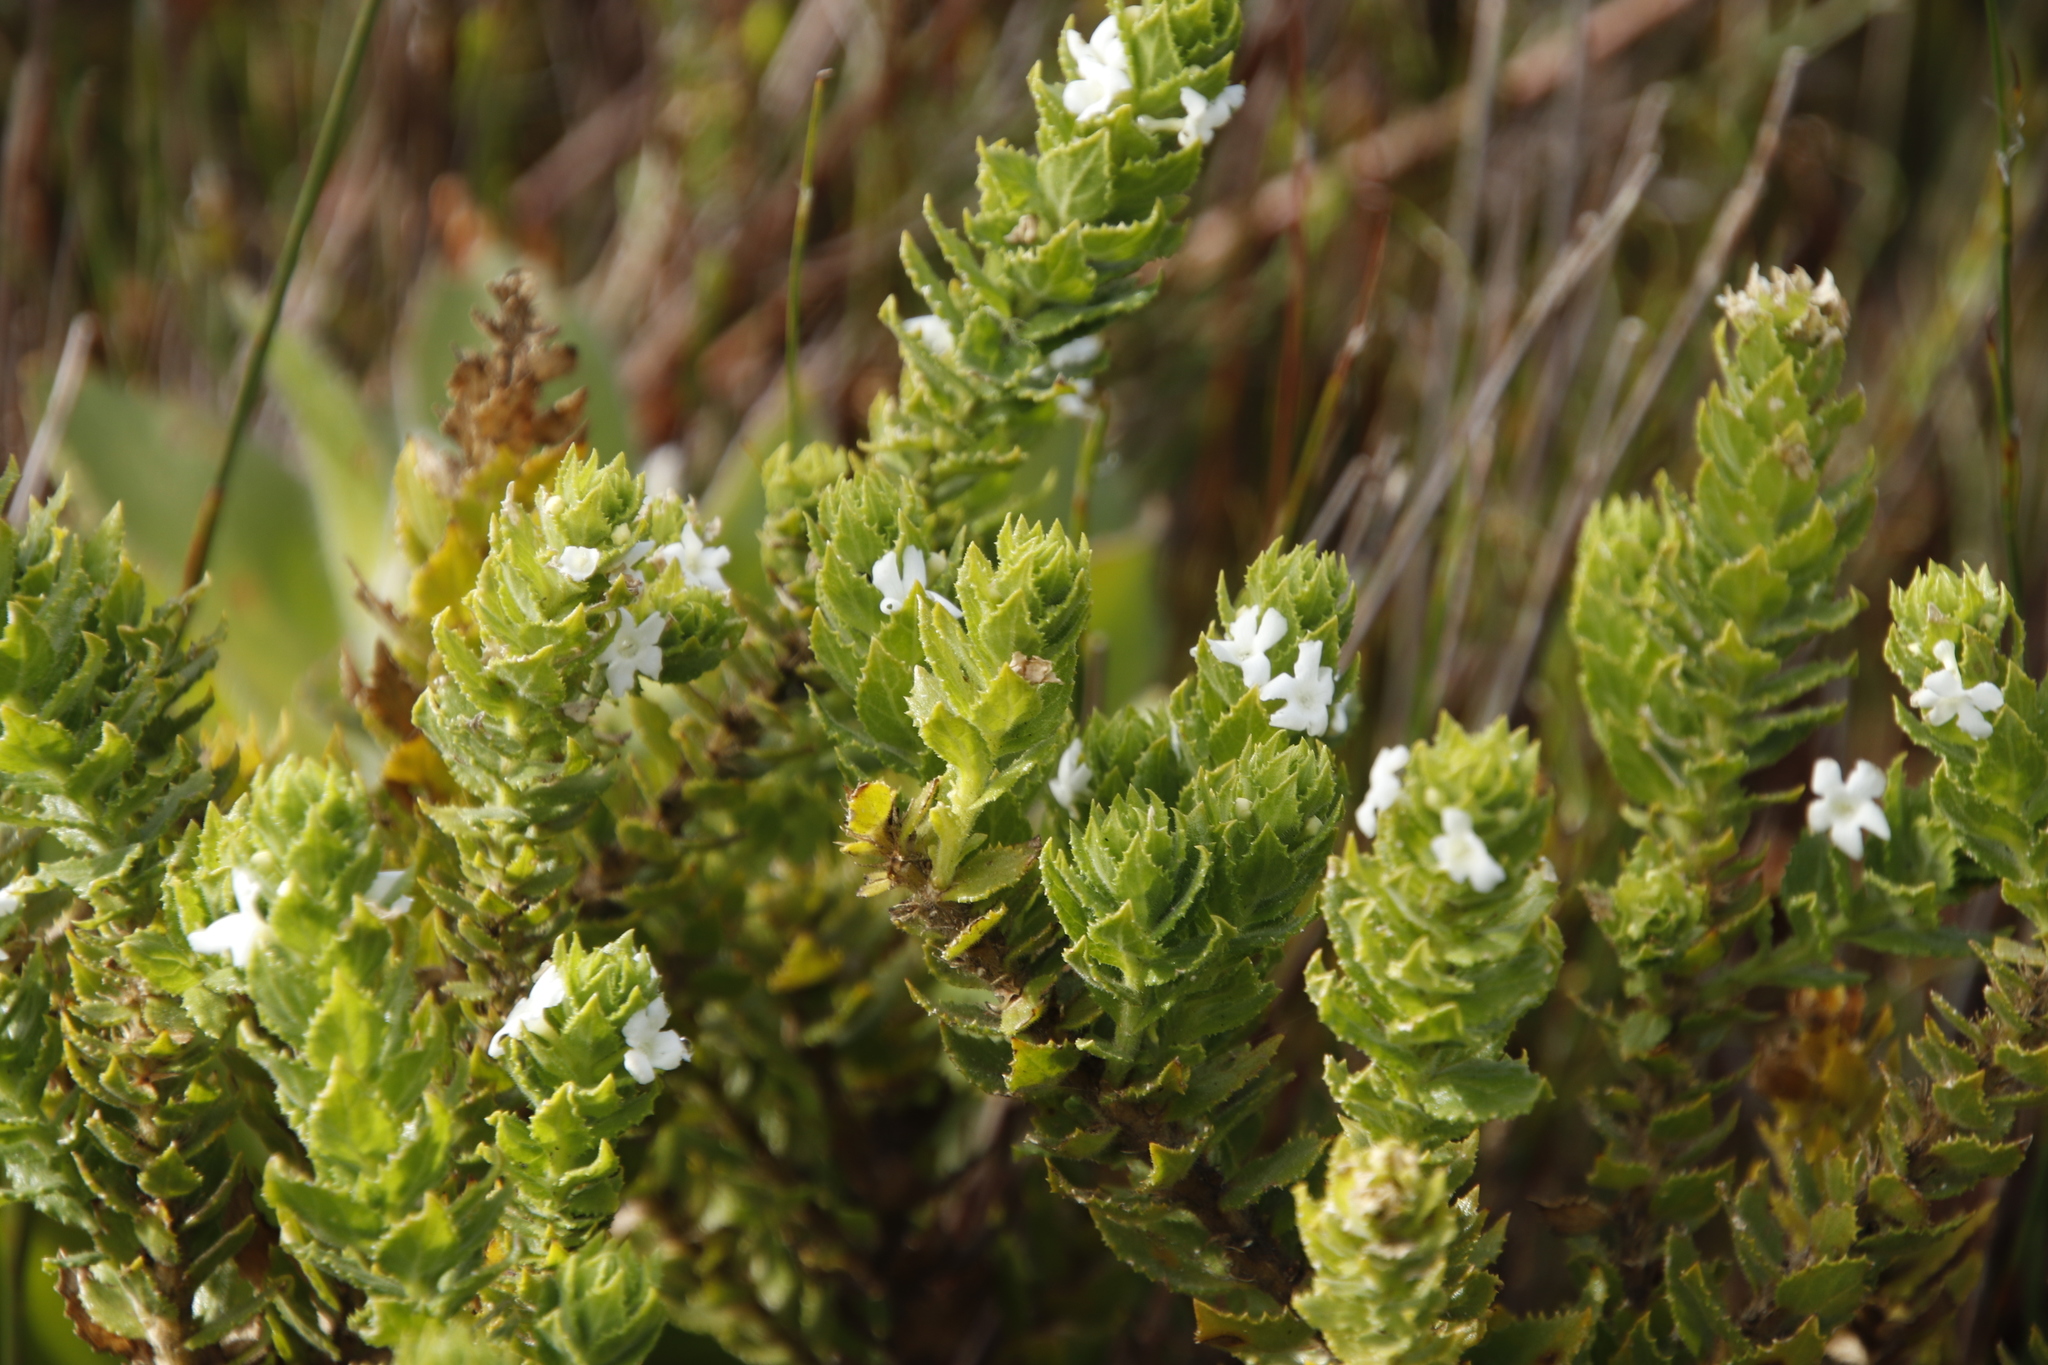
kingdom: Plantae
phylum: Tracheophyta
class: Magnoliopsida
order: Lamiales
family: Scrophulariaceae
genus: Oftia
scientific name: Oftia africana
